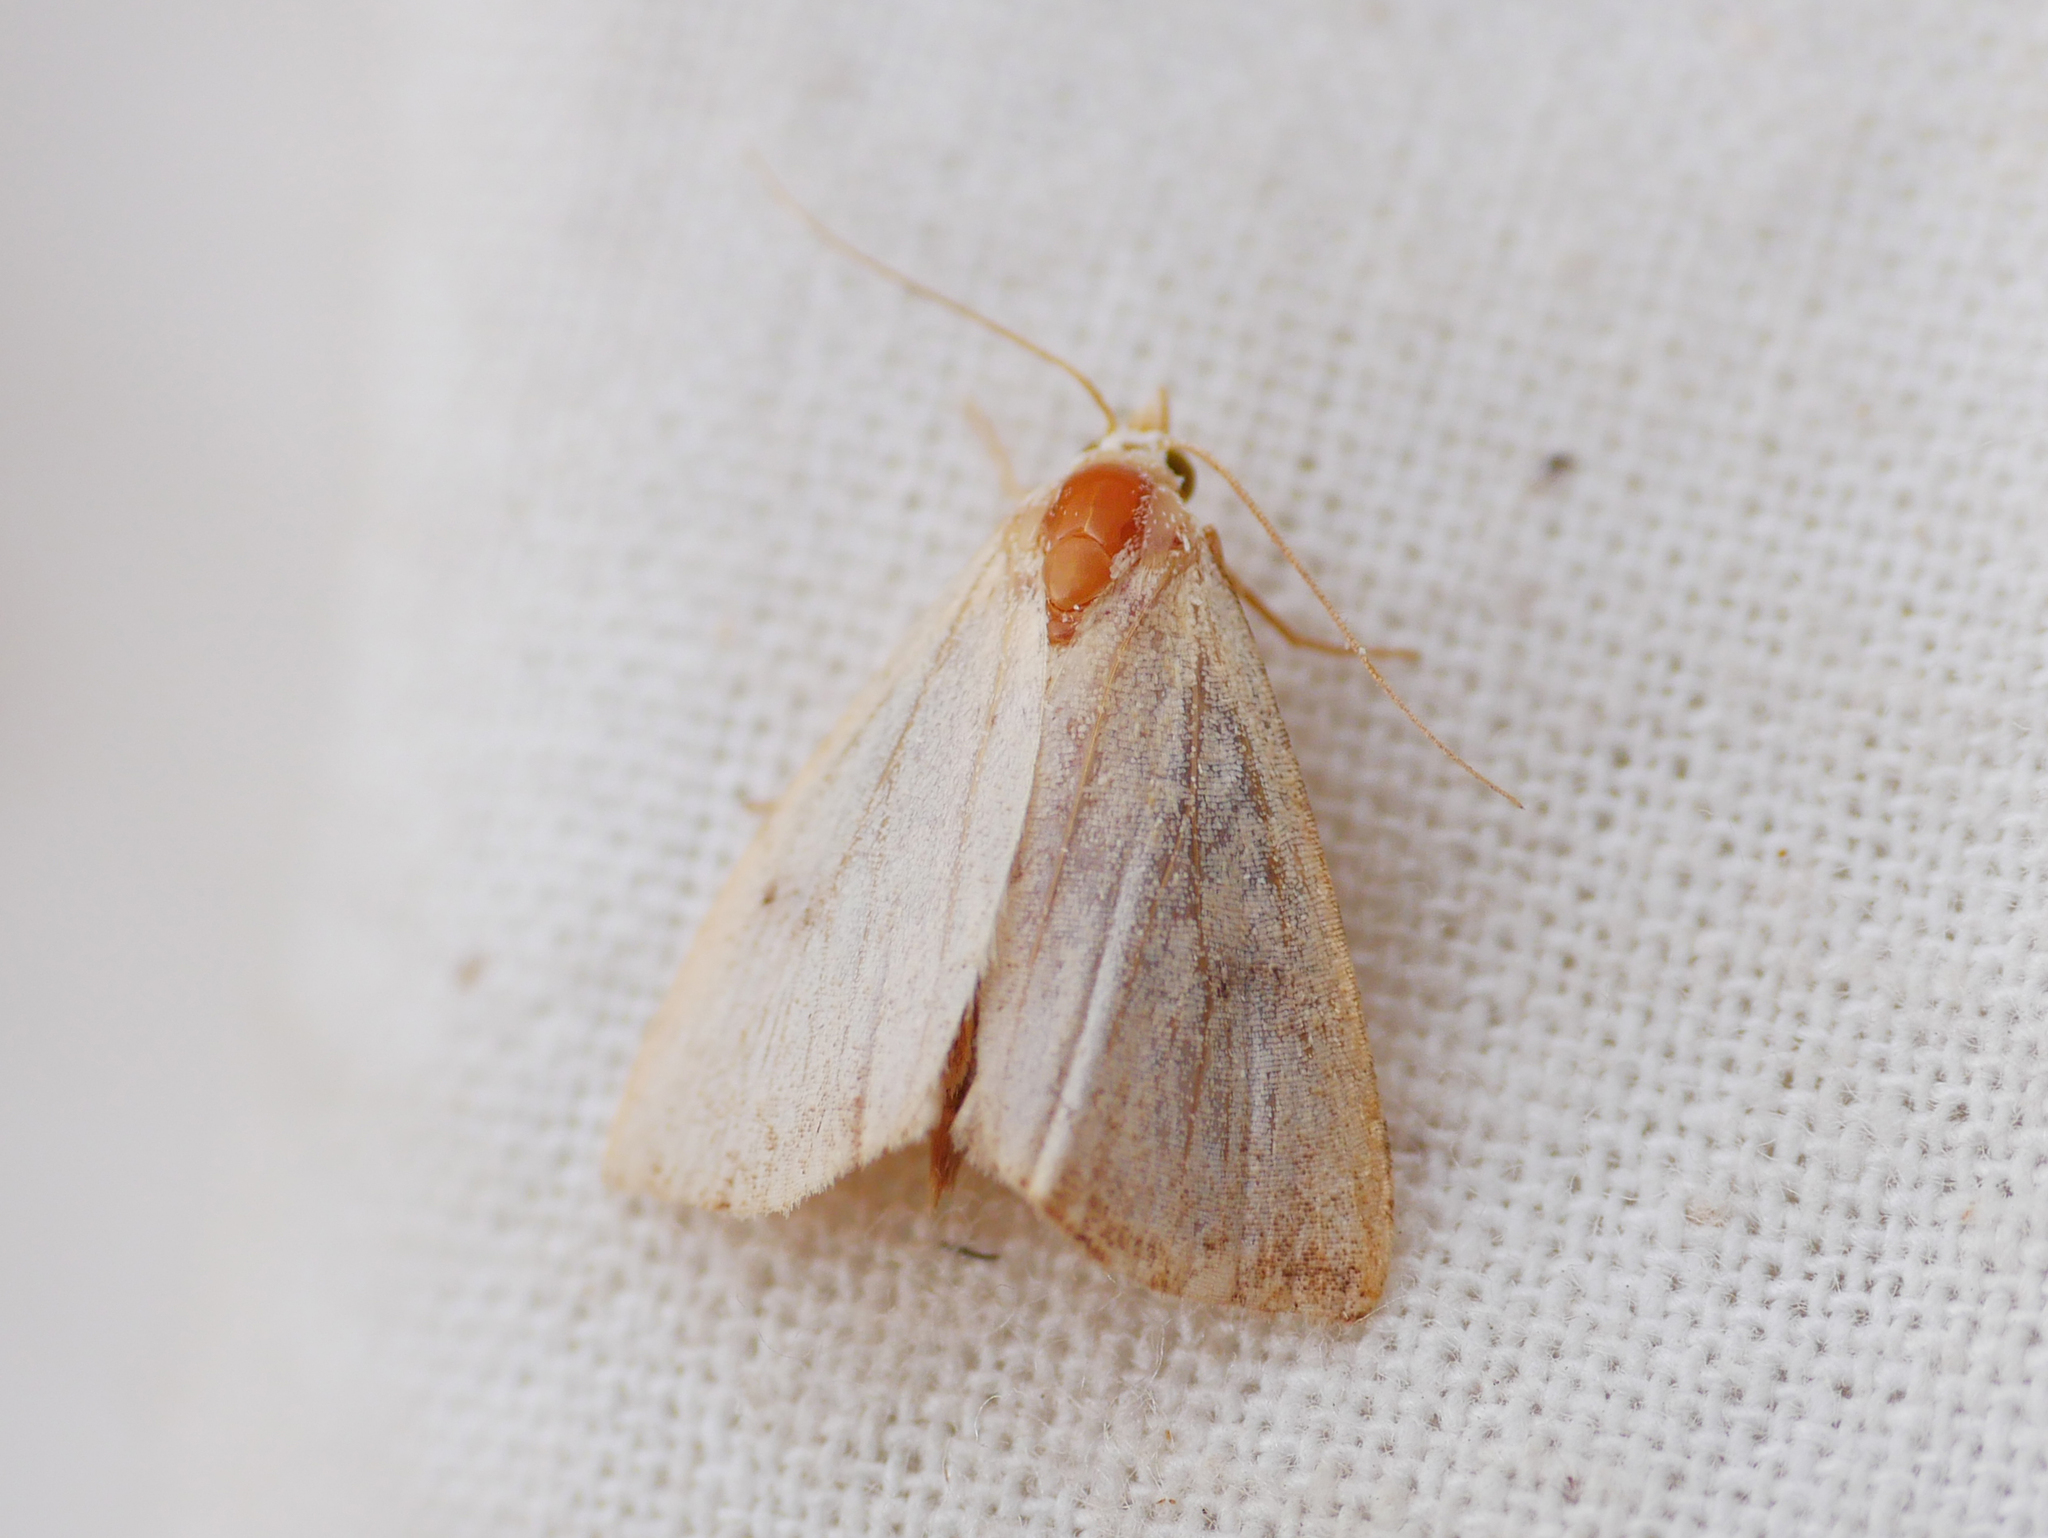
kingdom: Animalia
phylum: Arthropoda
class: Insecta
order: Lepidoptera
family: Erebidae
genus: Rivula
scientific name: Rivula sericealis
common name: Straw dot
